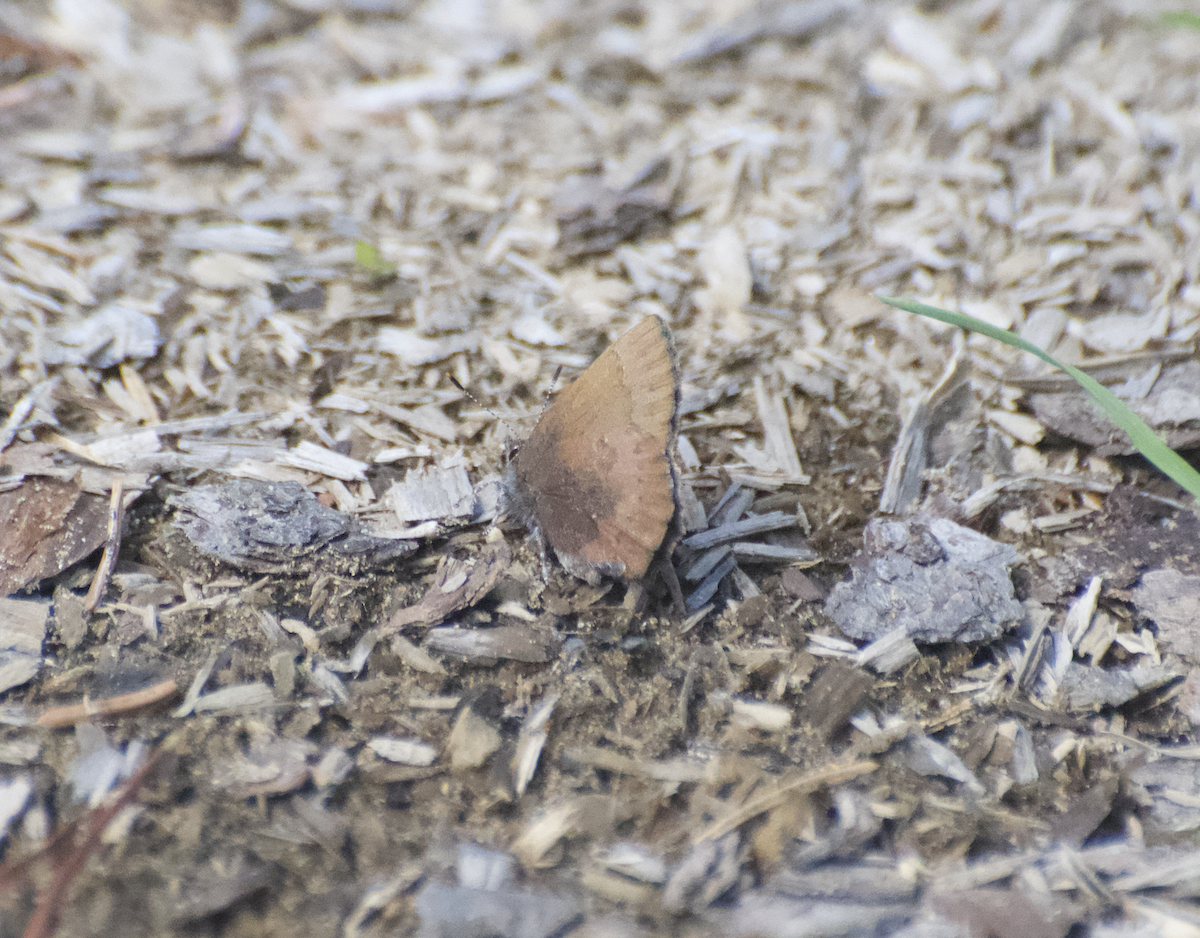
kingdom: Animalia
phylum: Arthropoda
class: Insecta
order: Lepidoptera
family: Lycaenidae
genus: Incisalia
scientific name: Incisalia irioides
